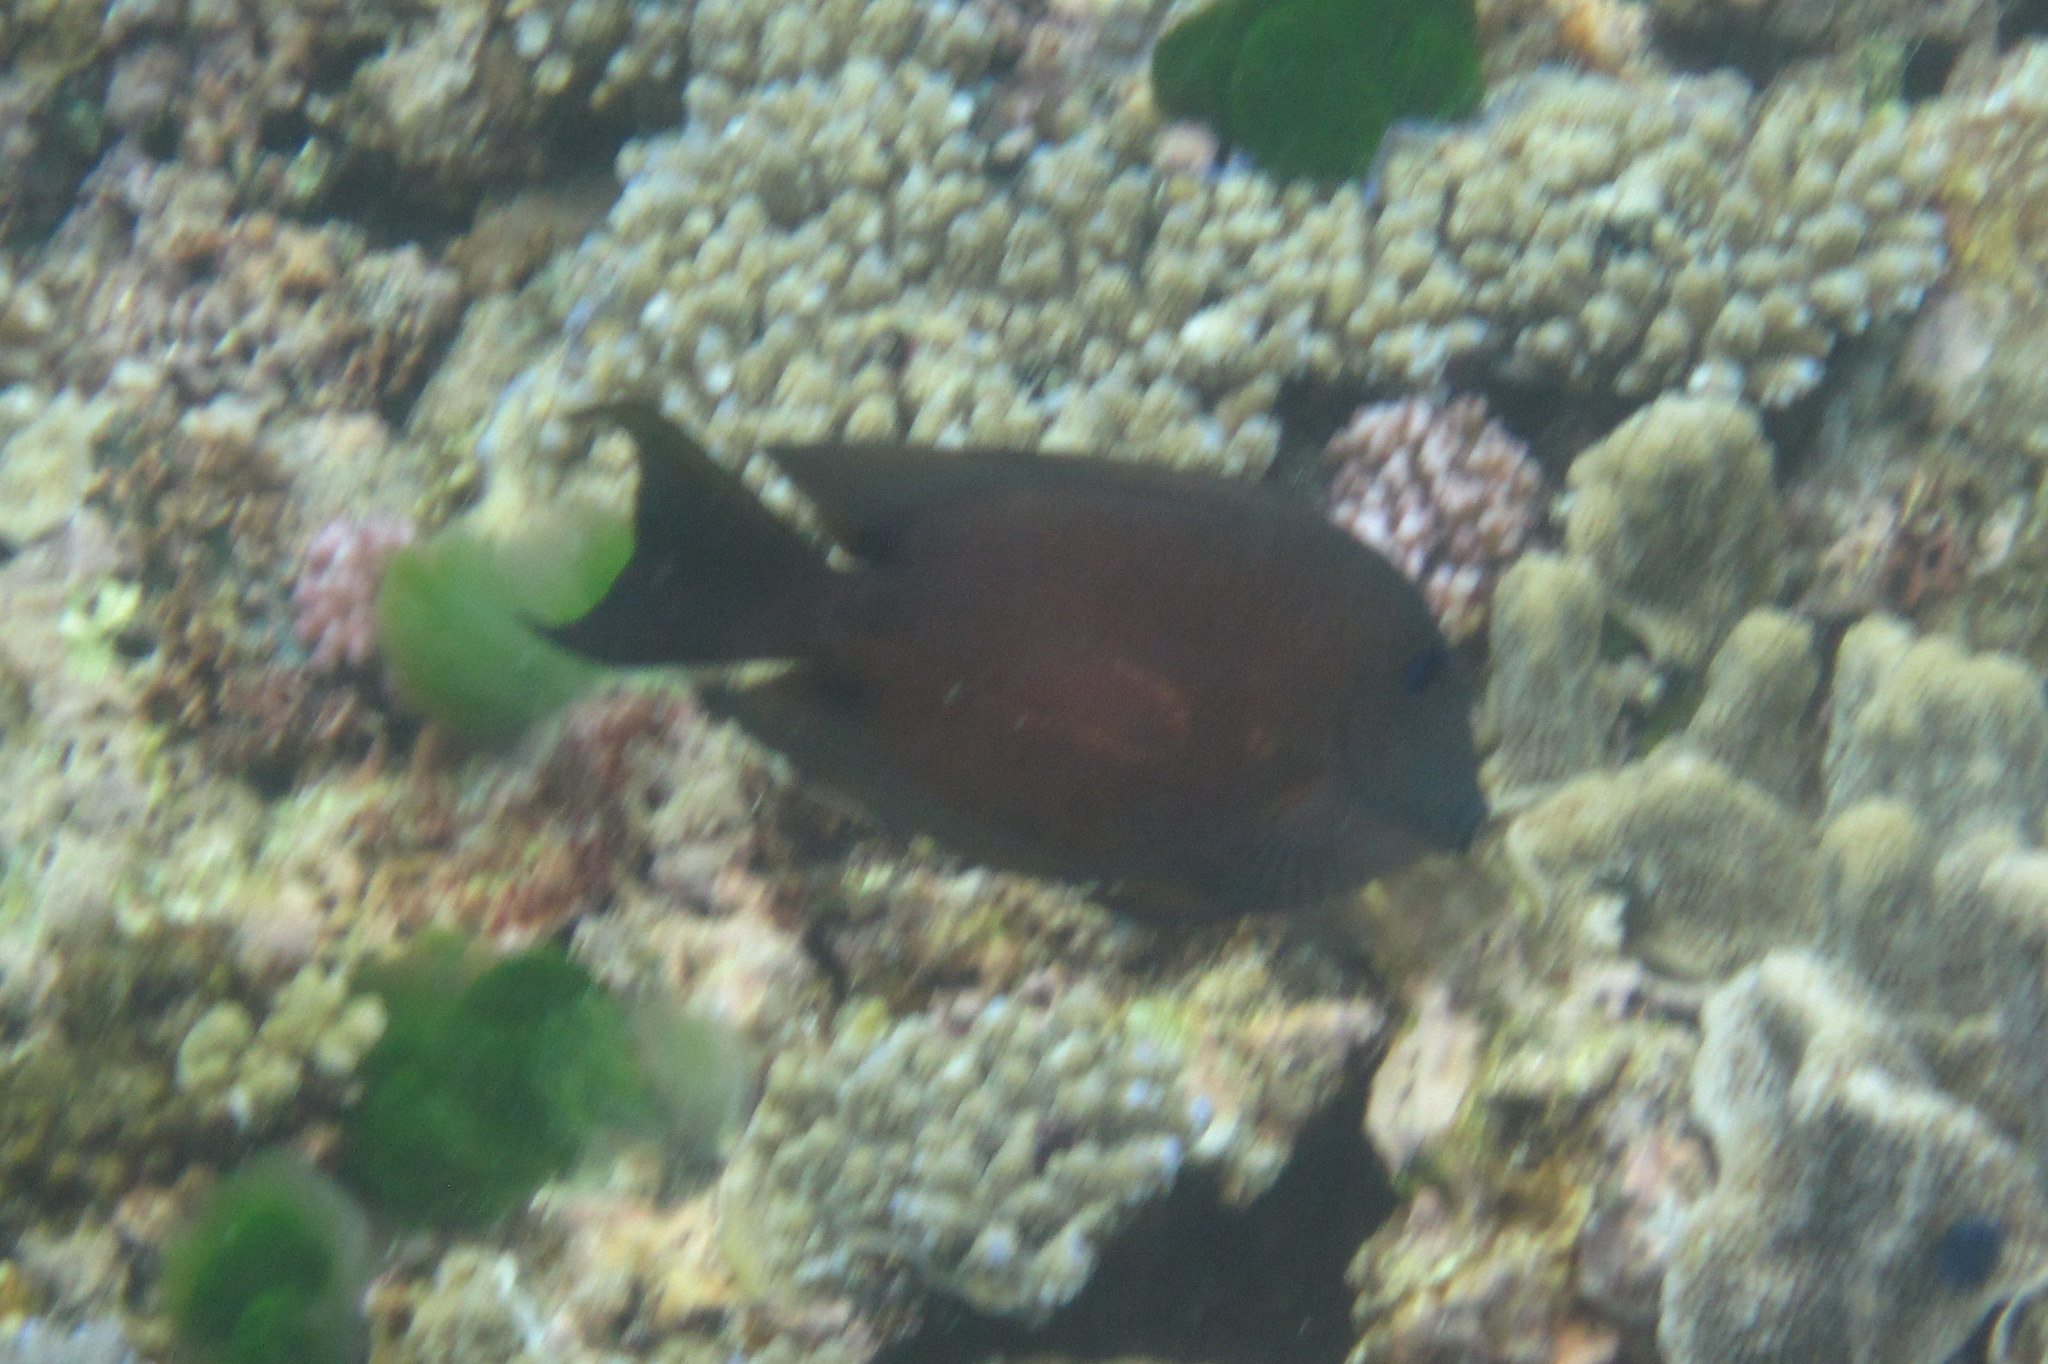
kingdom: Animalia
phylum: Chordata
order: Perciformes
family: Acanthuridae
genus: Ctenochaetus
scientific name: Ctenochaetus striatus
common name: Bristle-toothed surgeonfish
